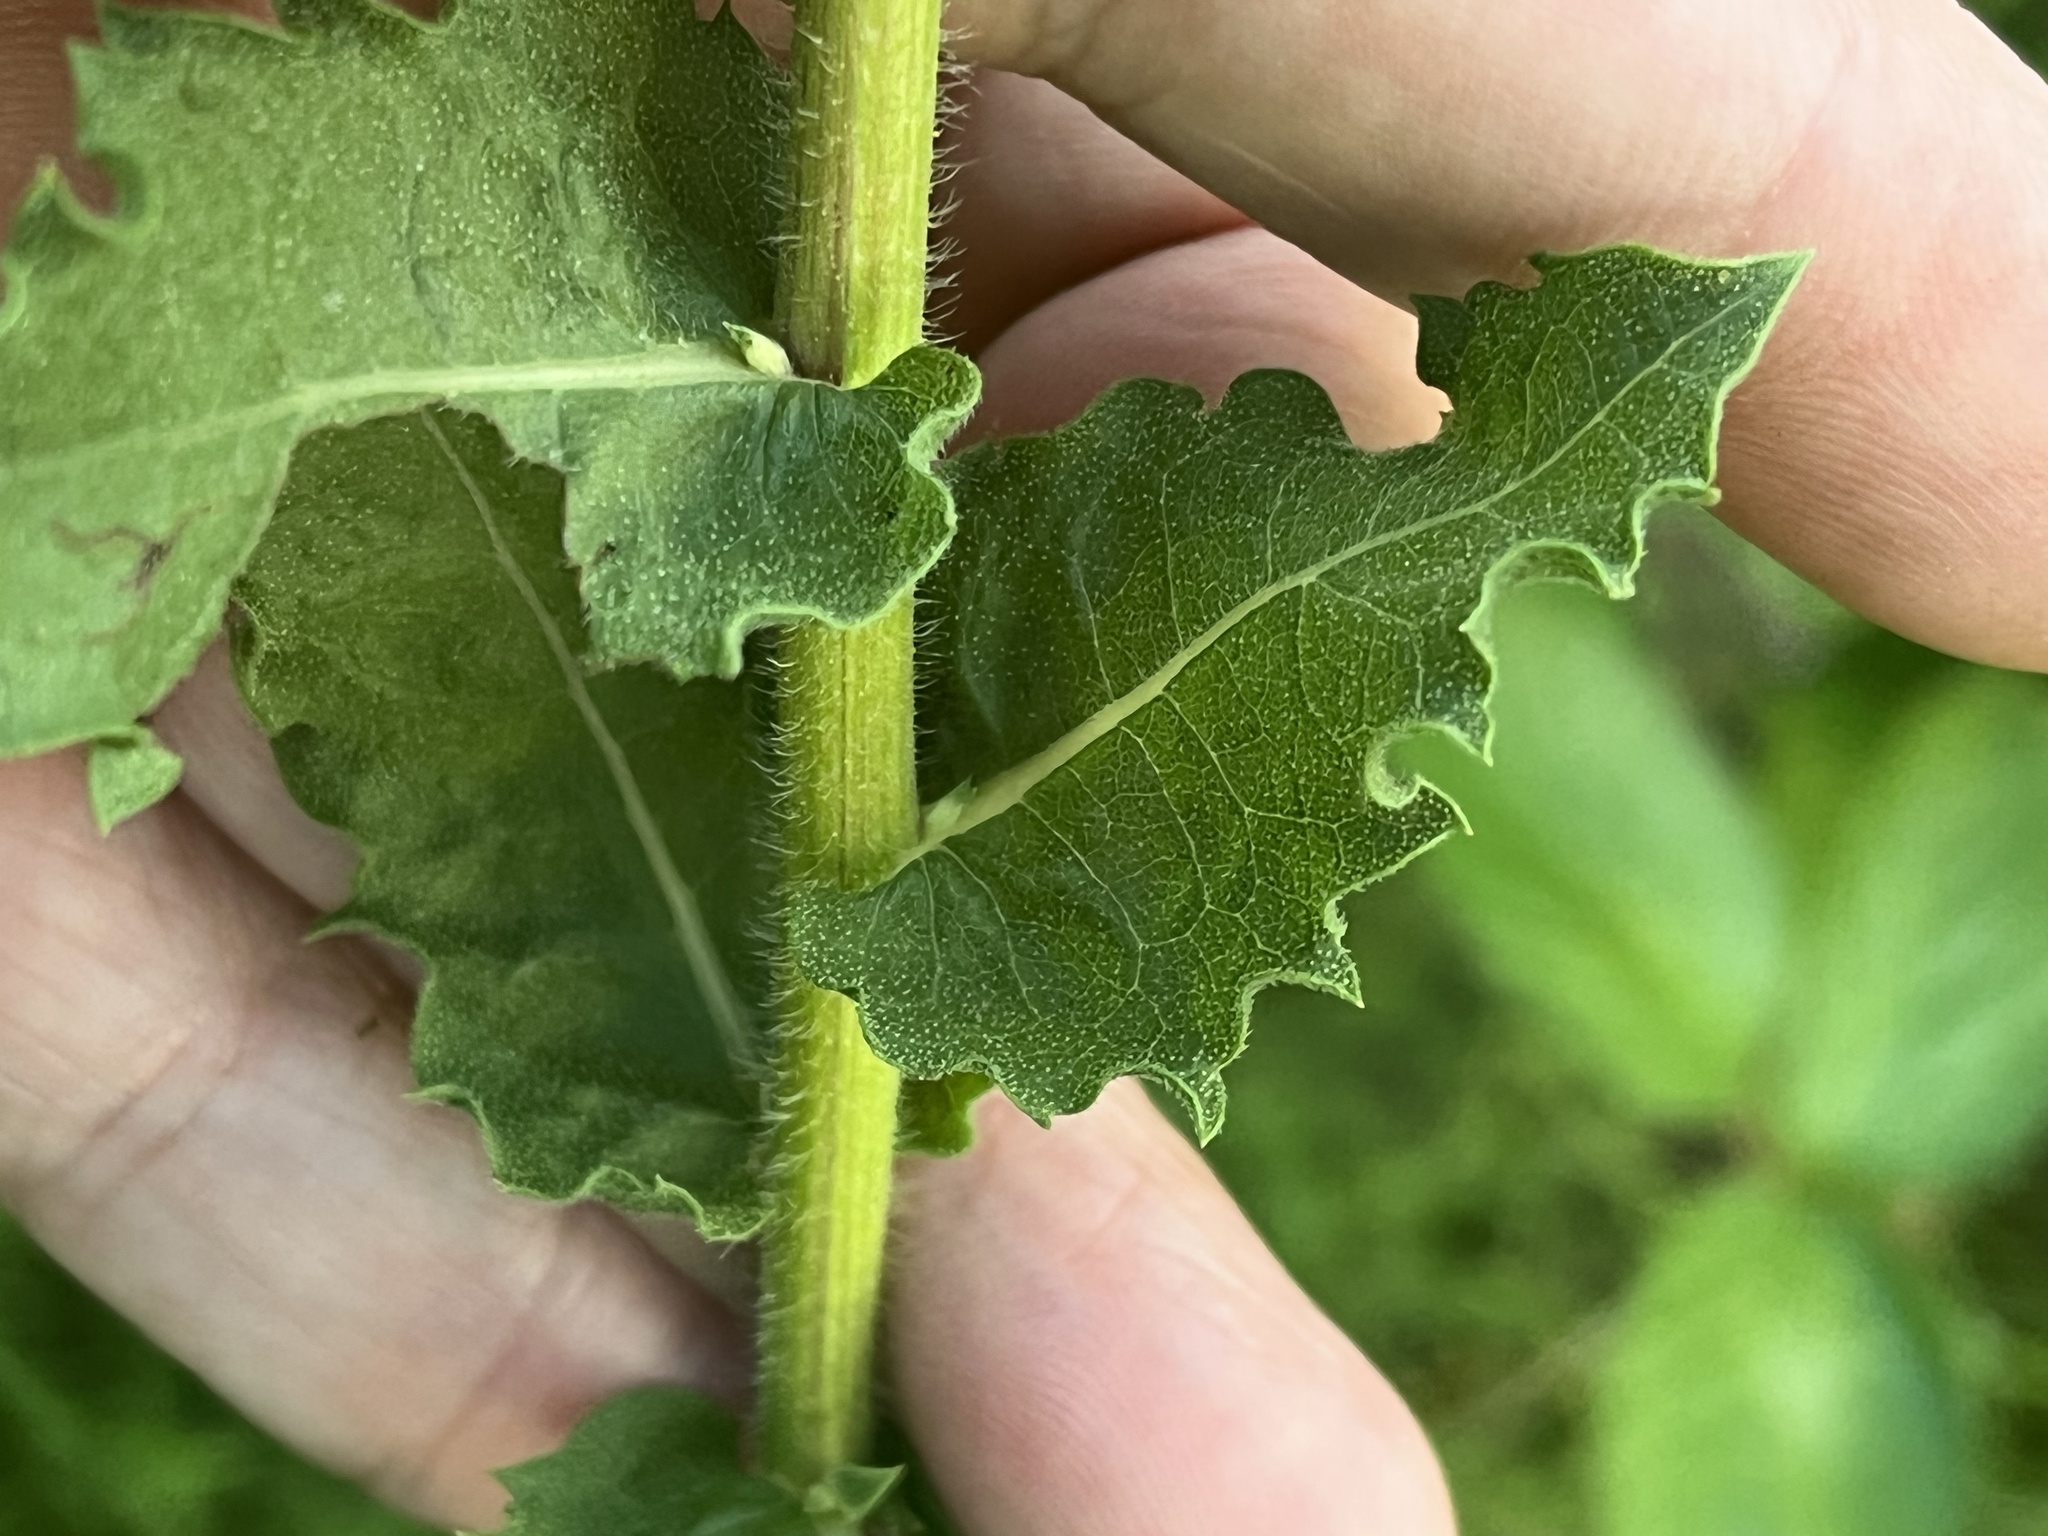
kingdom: Plantae
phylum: Tracheophyta
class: Magnoliopsida
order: Asterales
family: Asteraceae
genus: Heterotheca
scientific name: Heterotheca subaxillaris
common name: Camphorweed
